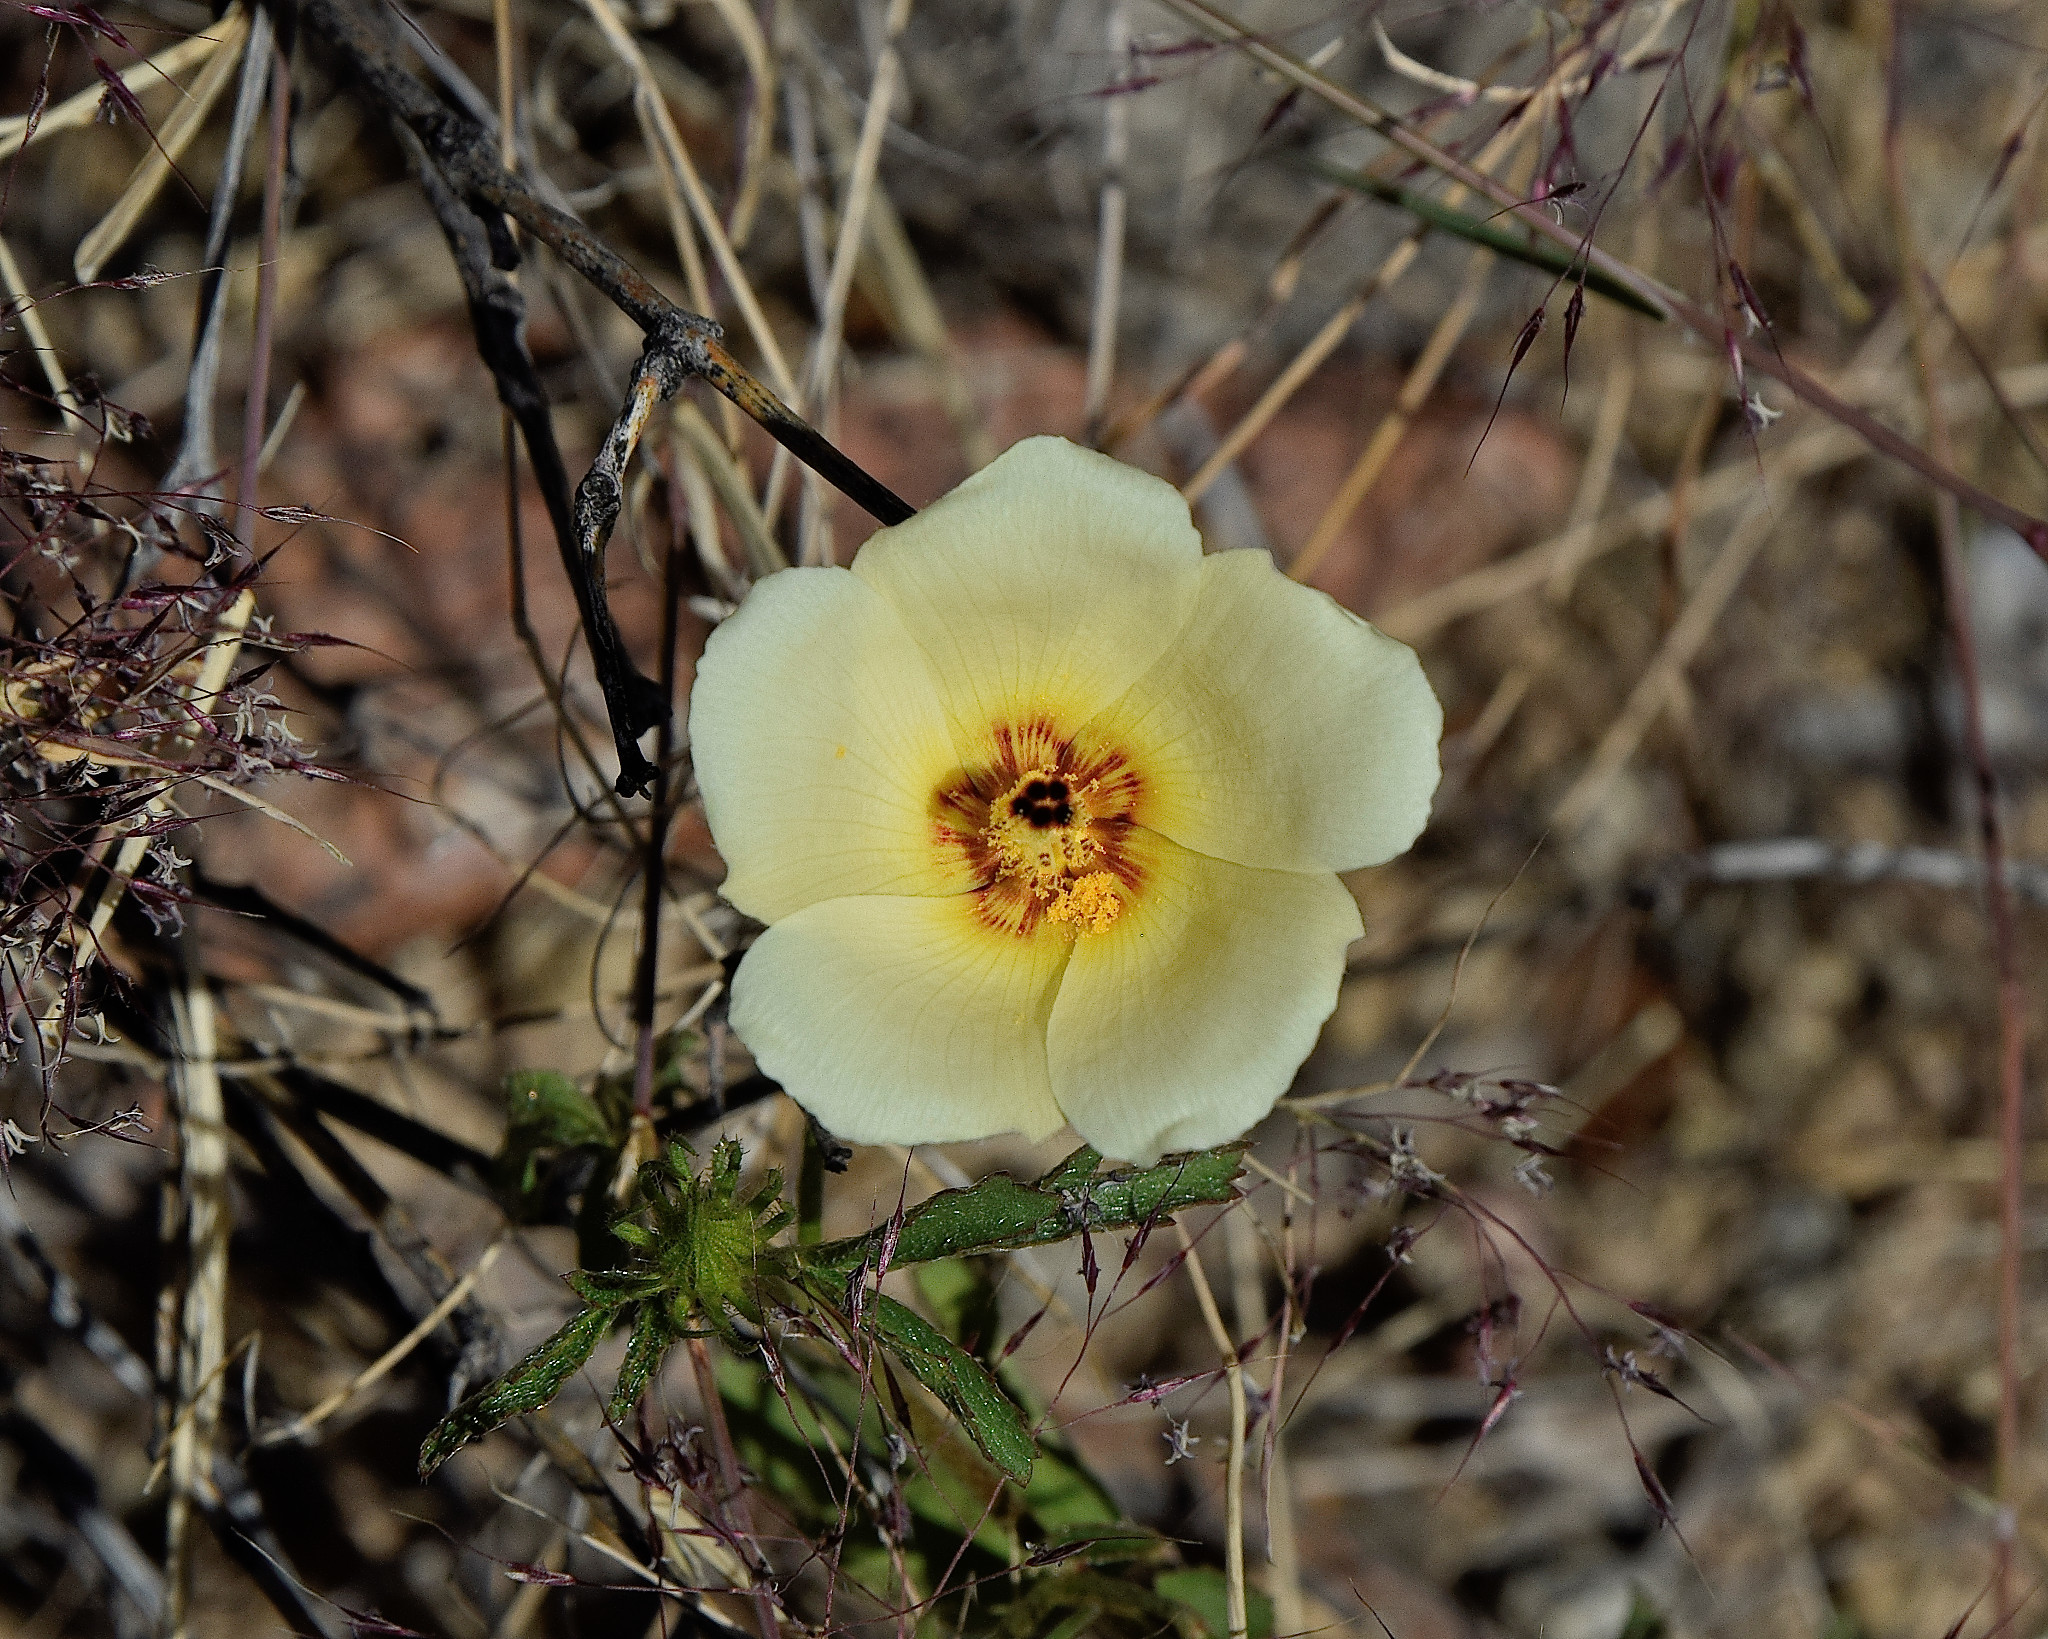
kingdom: Plantae
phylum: Tracheophyta
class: Magnoliopsida
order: Malvales
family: Malvaceae
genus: Hibiscus
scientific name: Hibiscus coulteri
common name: Desert rose-mallow
